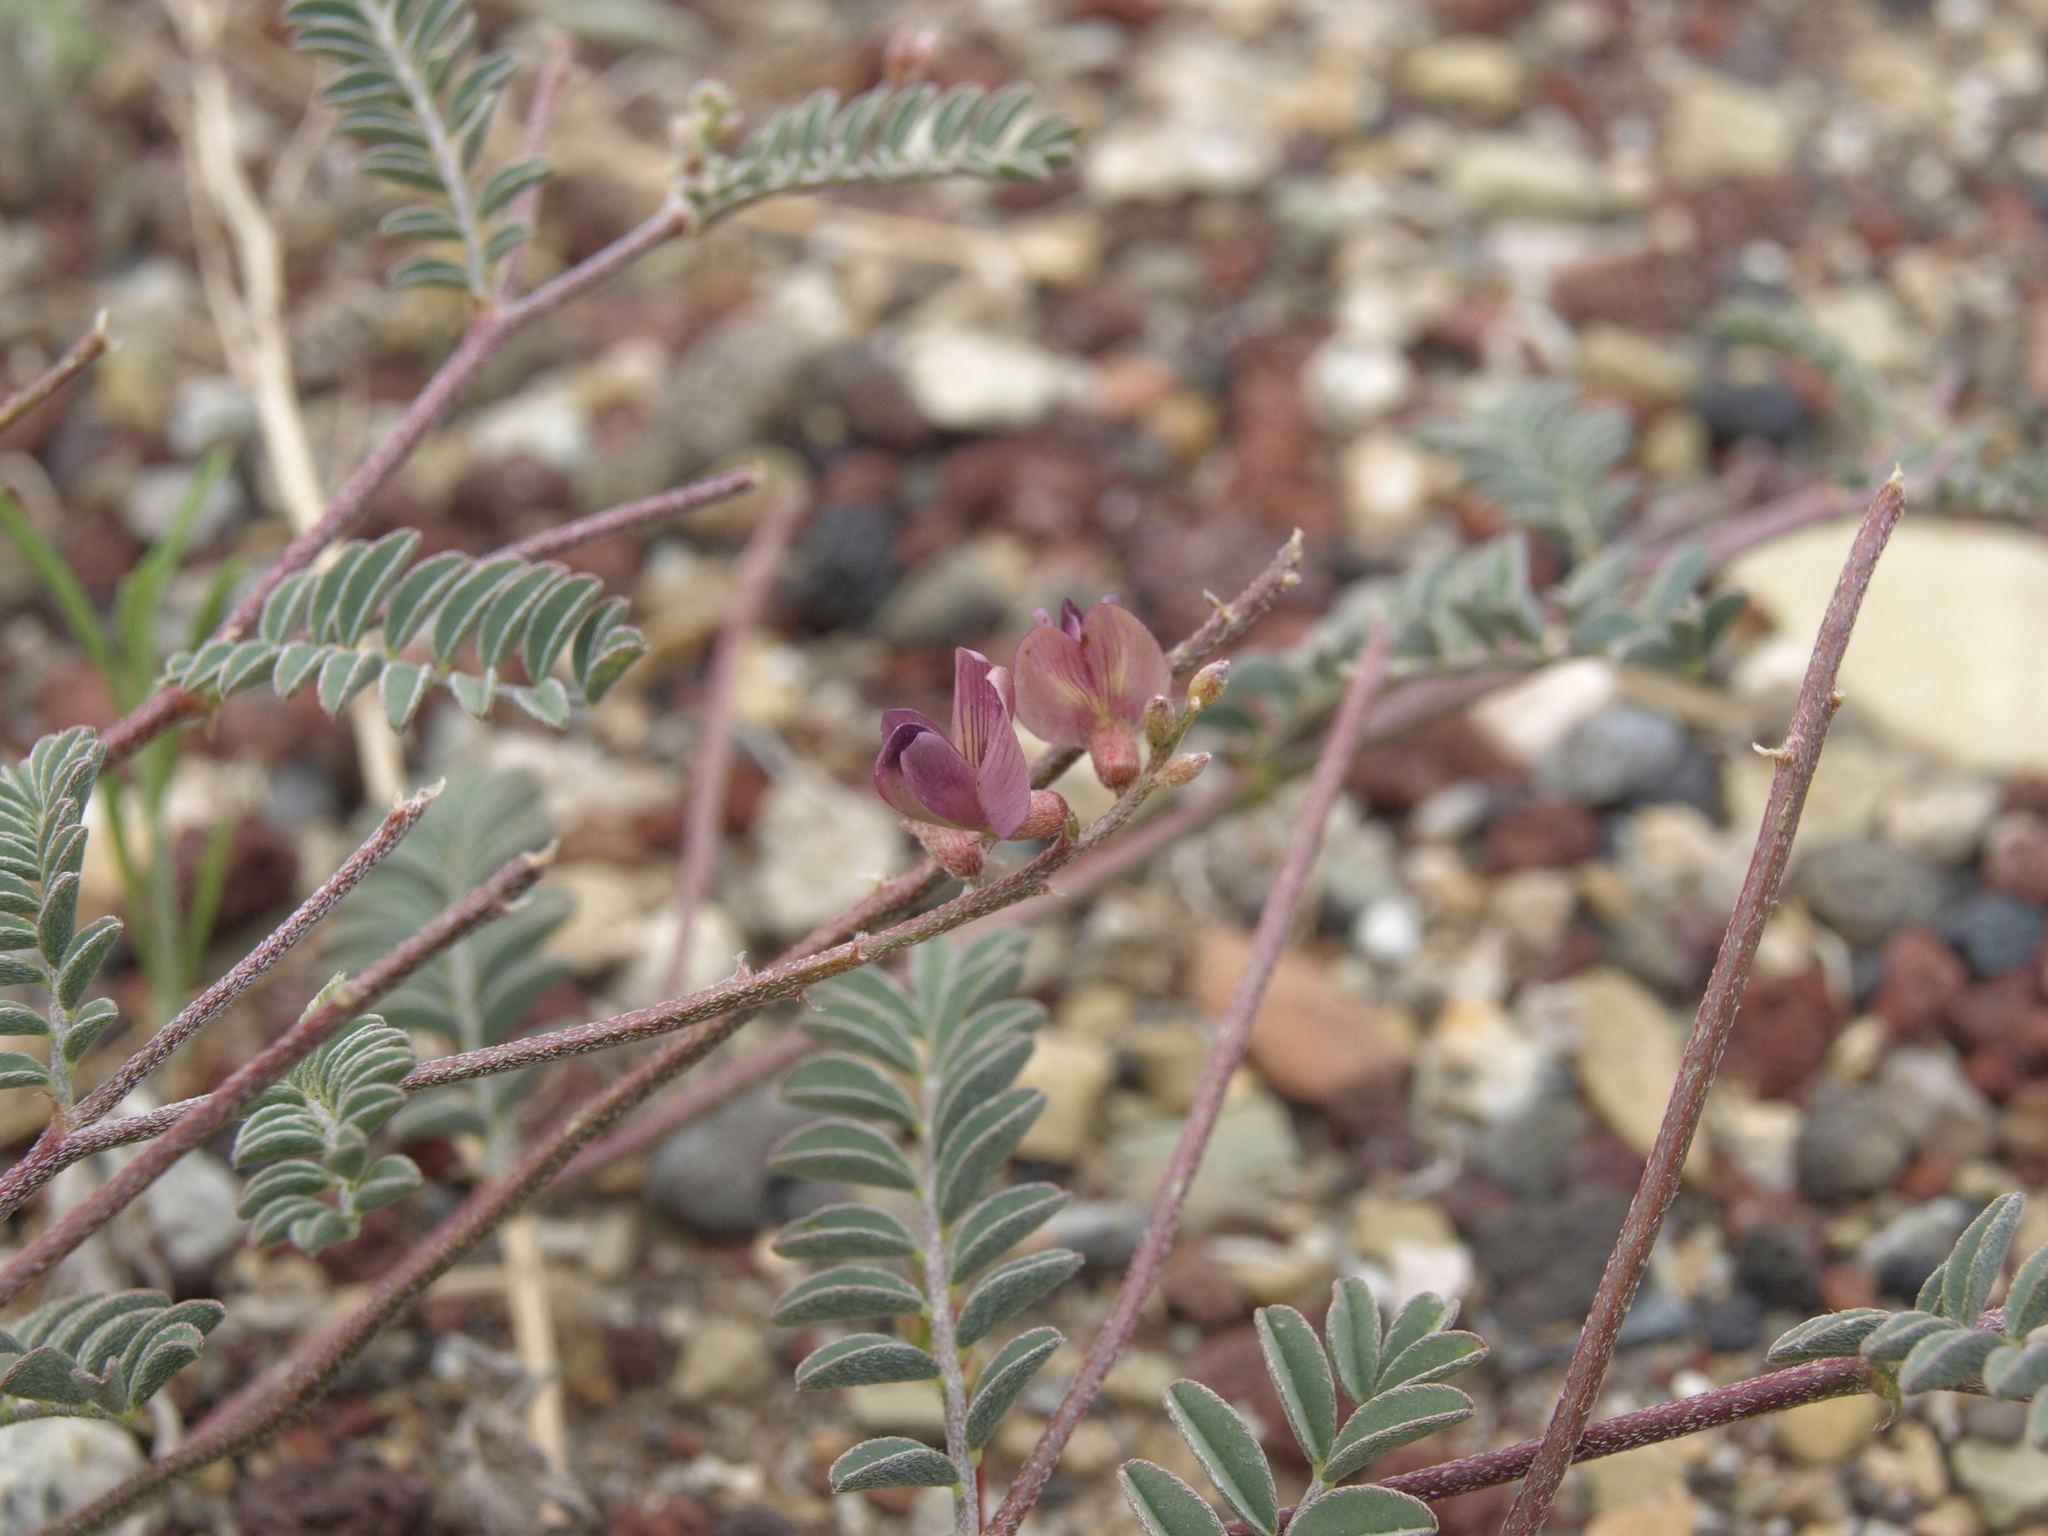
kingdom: Plantae
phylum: Tracheophyta
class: Magnoliopsida
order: Fabales
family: Fabaceae
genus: Astragalus
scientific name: Astragalus inyoensis
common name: Inyo locoweed
